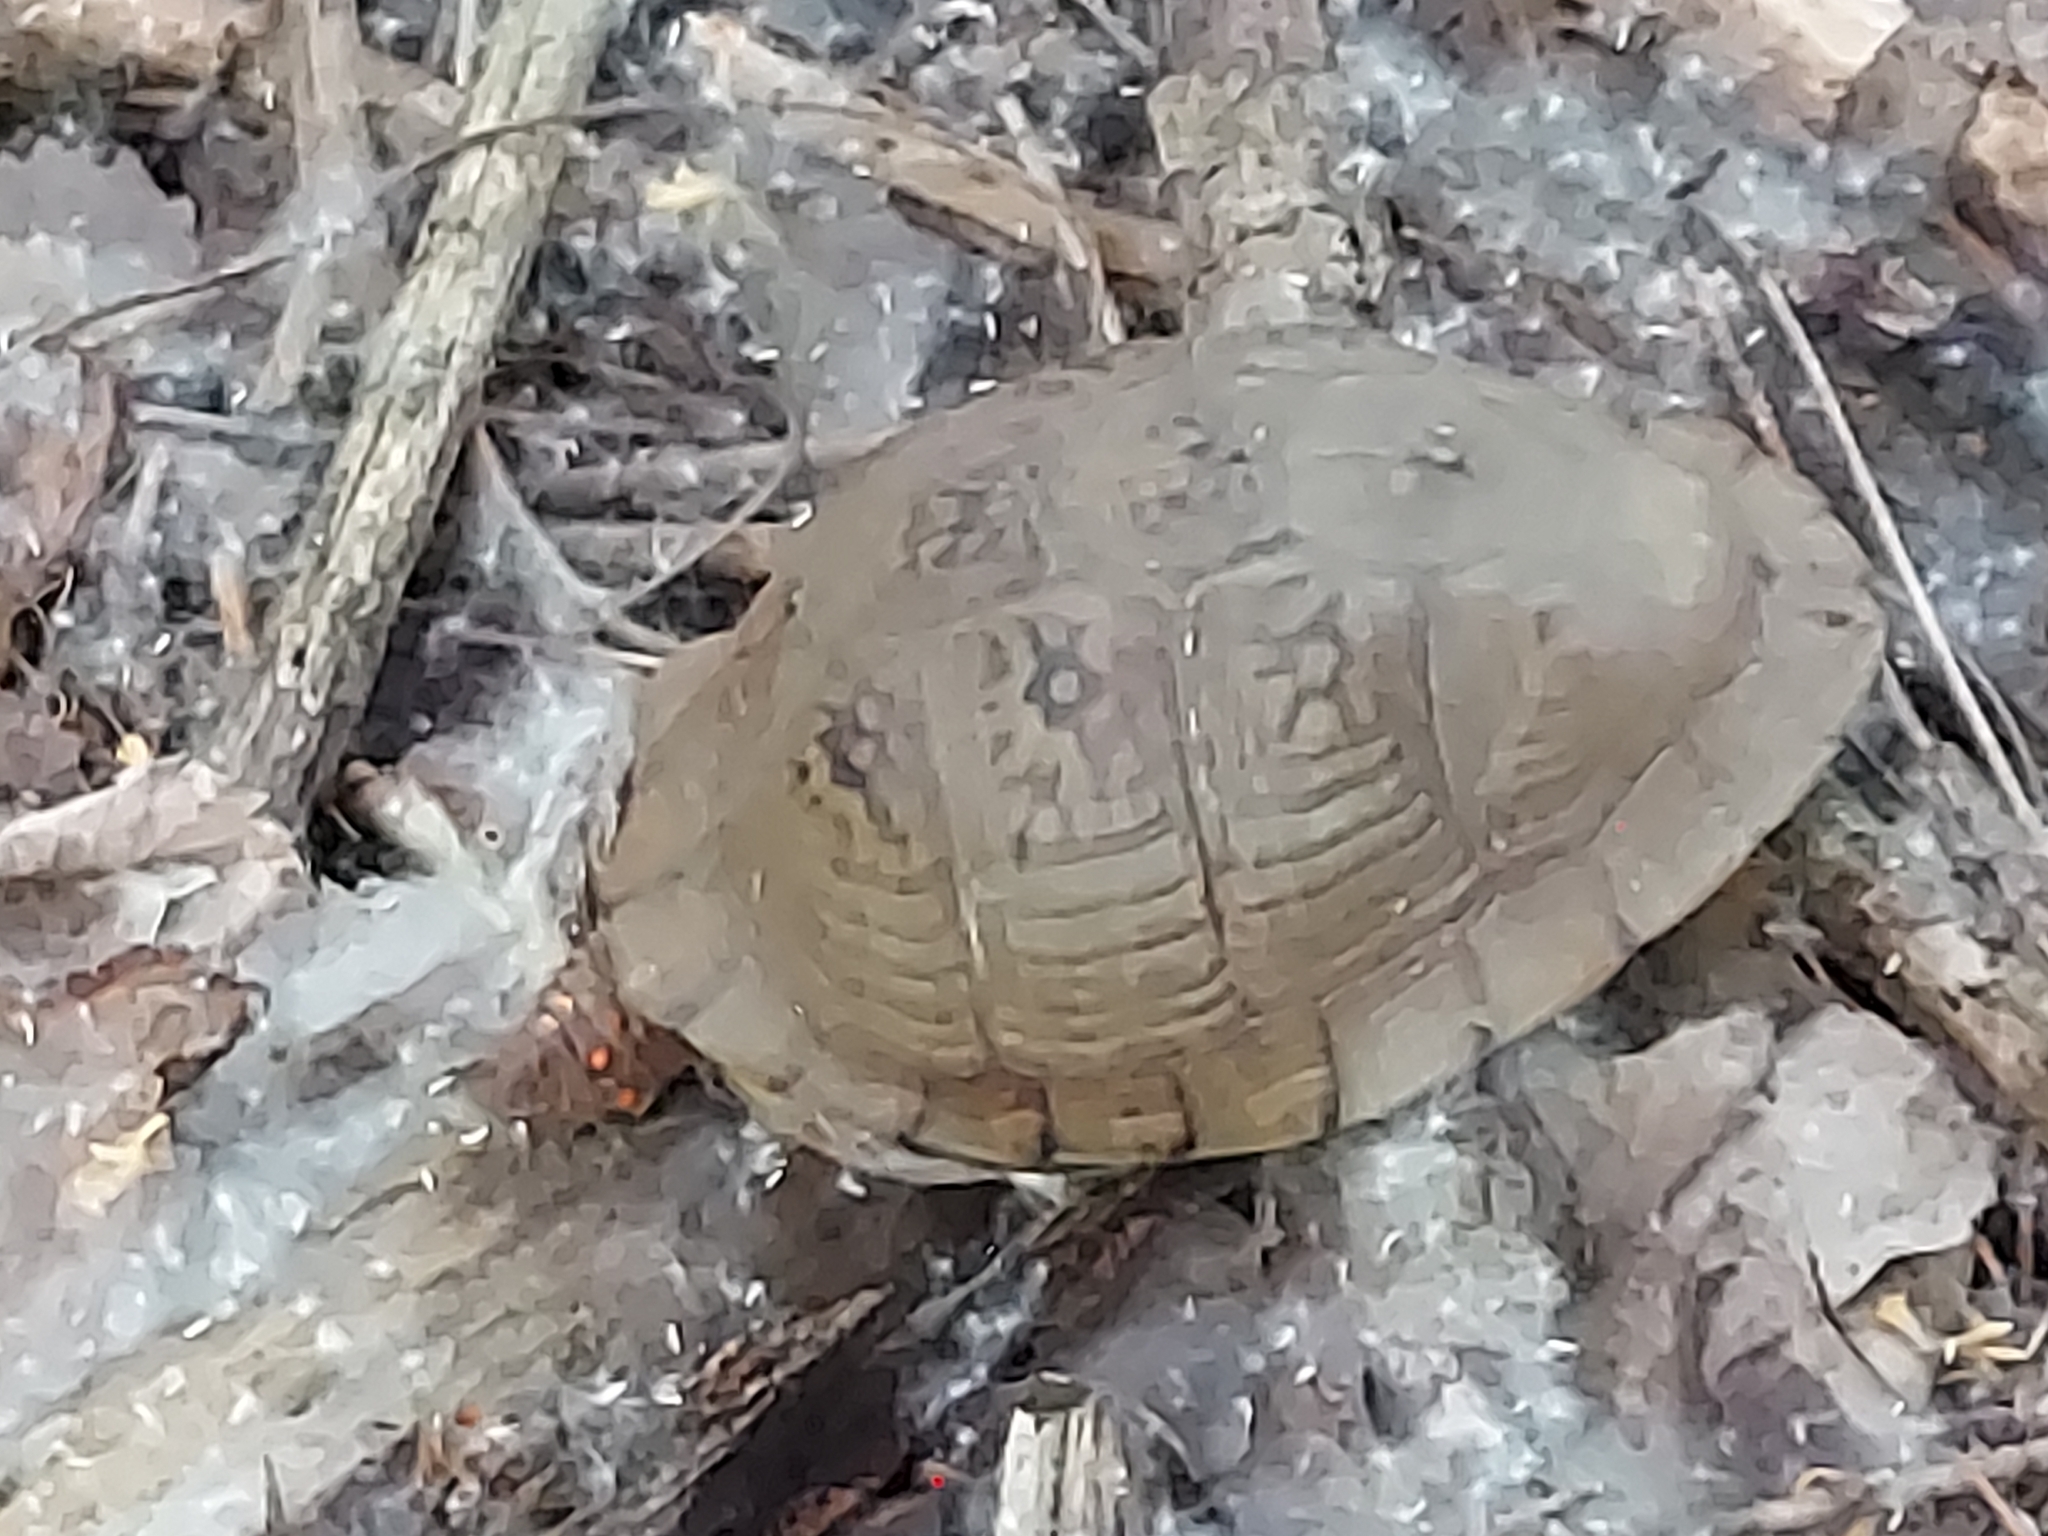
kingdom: Animalia
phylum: Chordata
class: Testudines
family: Emydidae
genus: Terrapene
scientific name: Terrapene carolina
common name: Common box turtle
